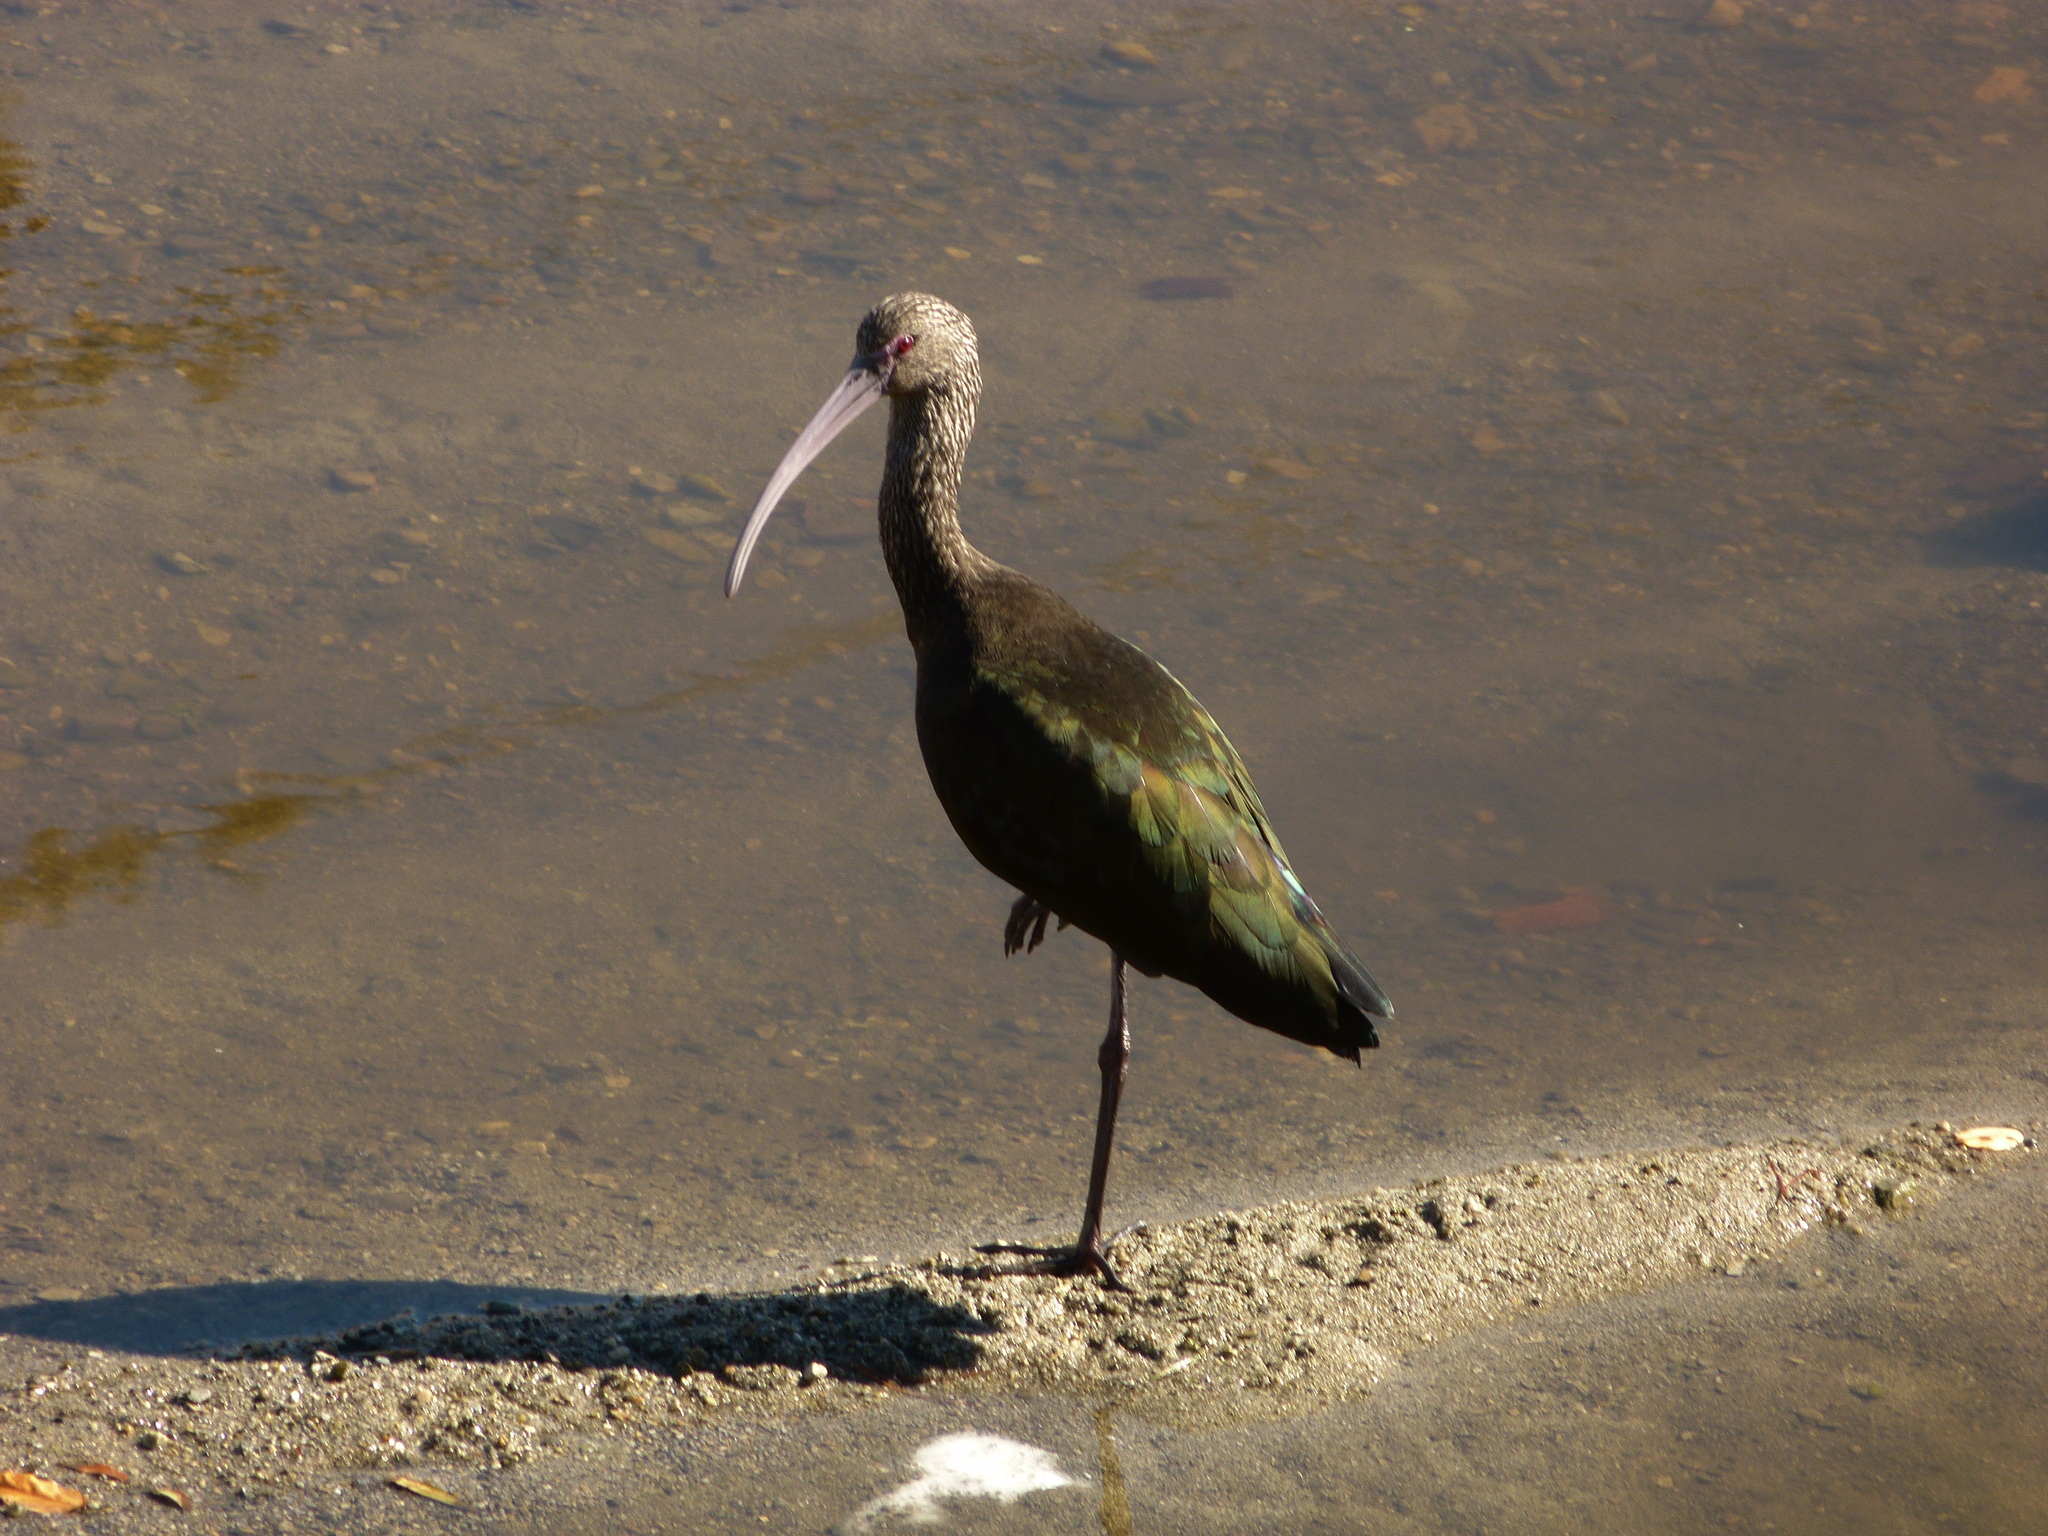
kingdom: Animalia
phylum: Chordata
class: Aves
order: Pelecaniformes
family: Threskiornithidae
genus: Plegadis
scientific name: Plegadis chihi
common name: White-faced ibis
